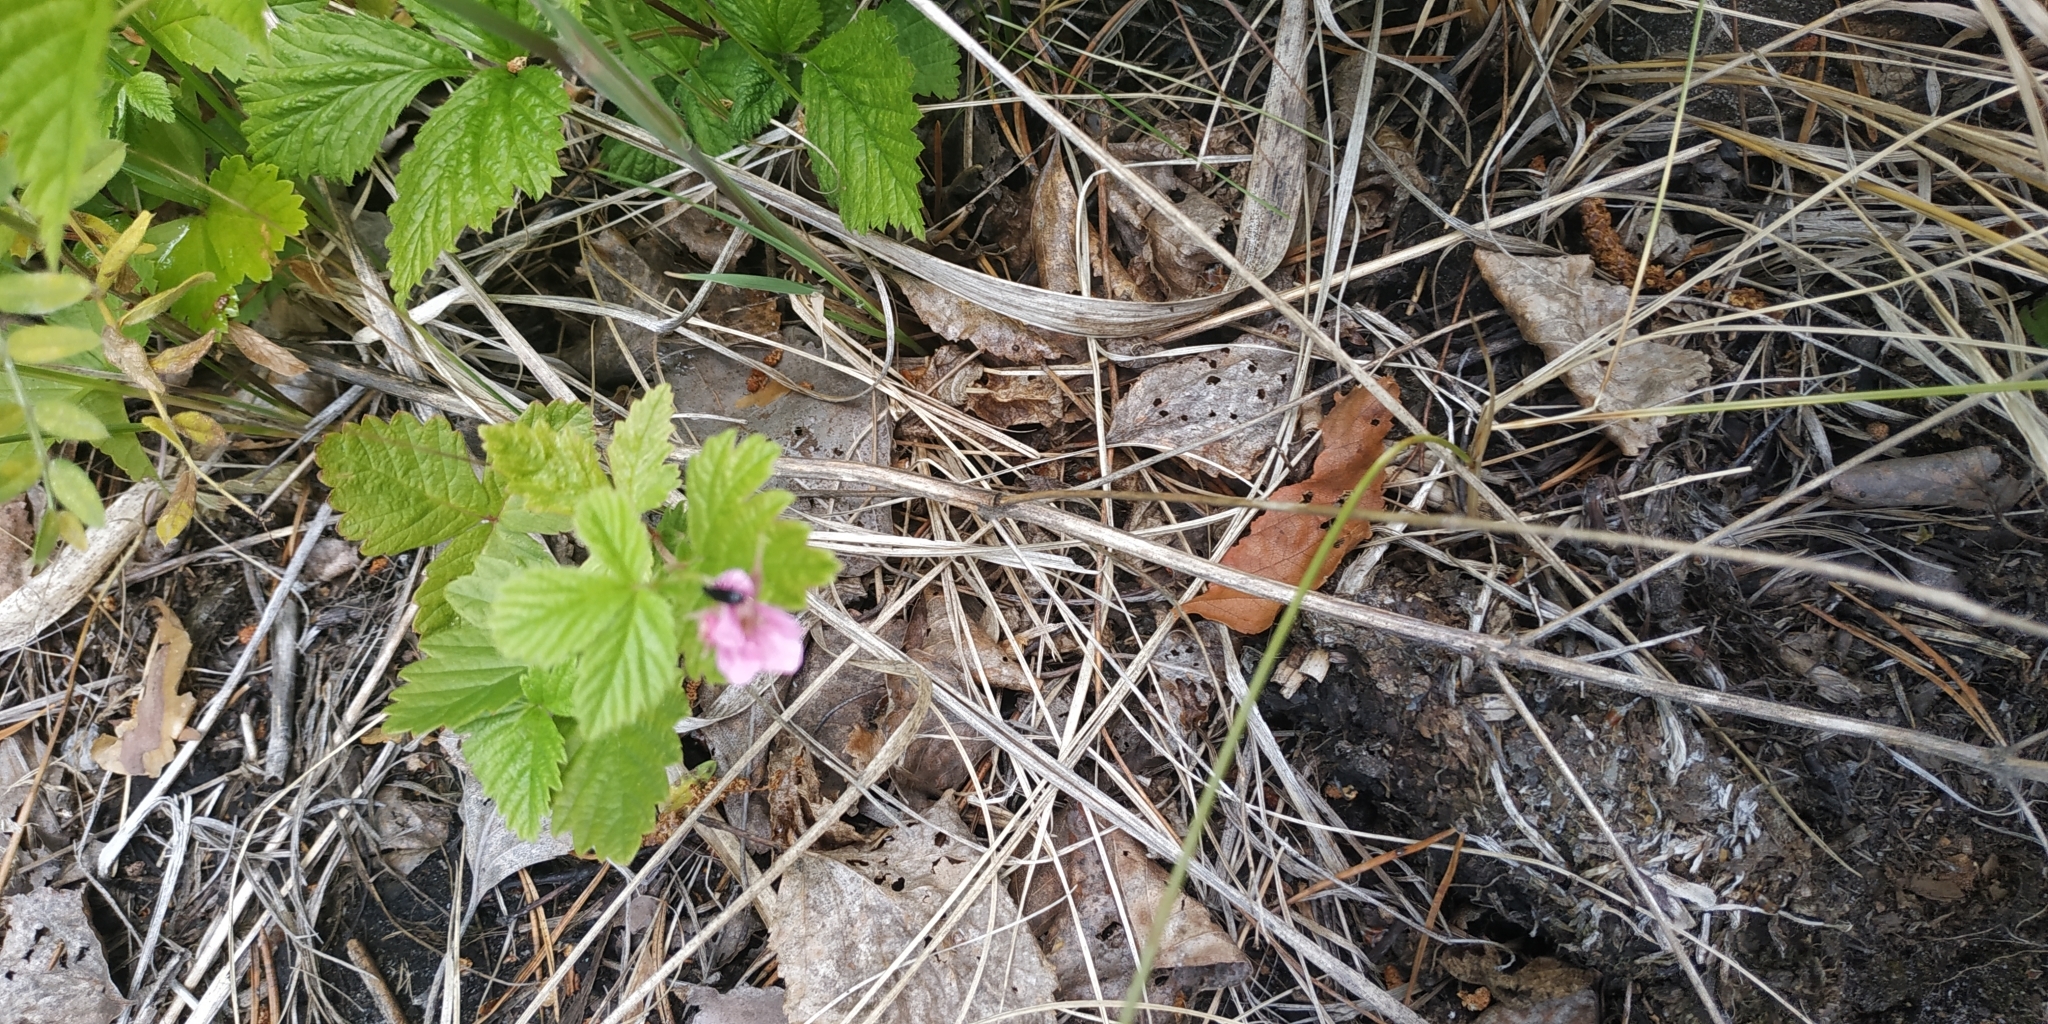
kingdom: Plantae
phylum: Tracheophyta
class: Magnoliopsida
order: Rosales
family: Rosaceae
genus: Rubus
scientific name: Rubus arcticus
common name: Arctic bramble
